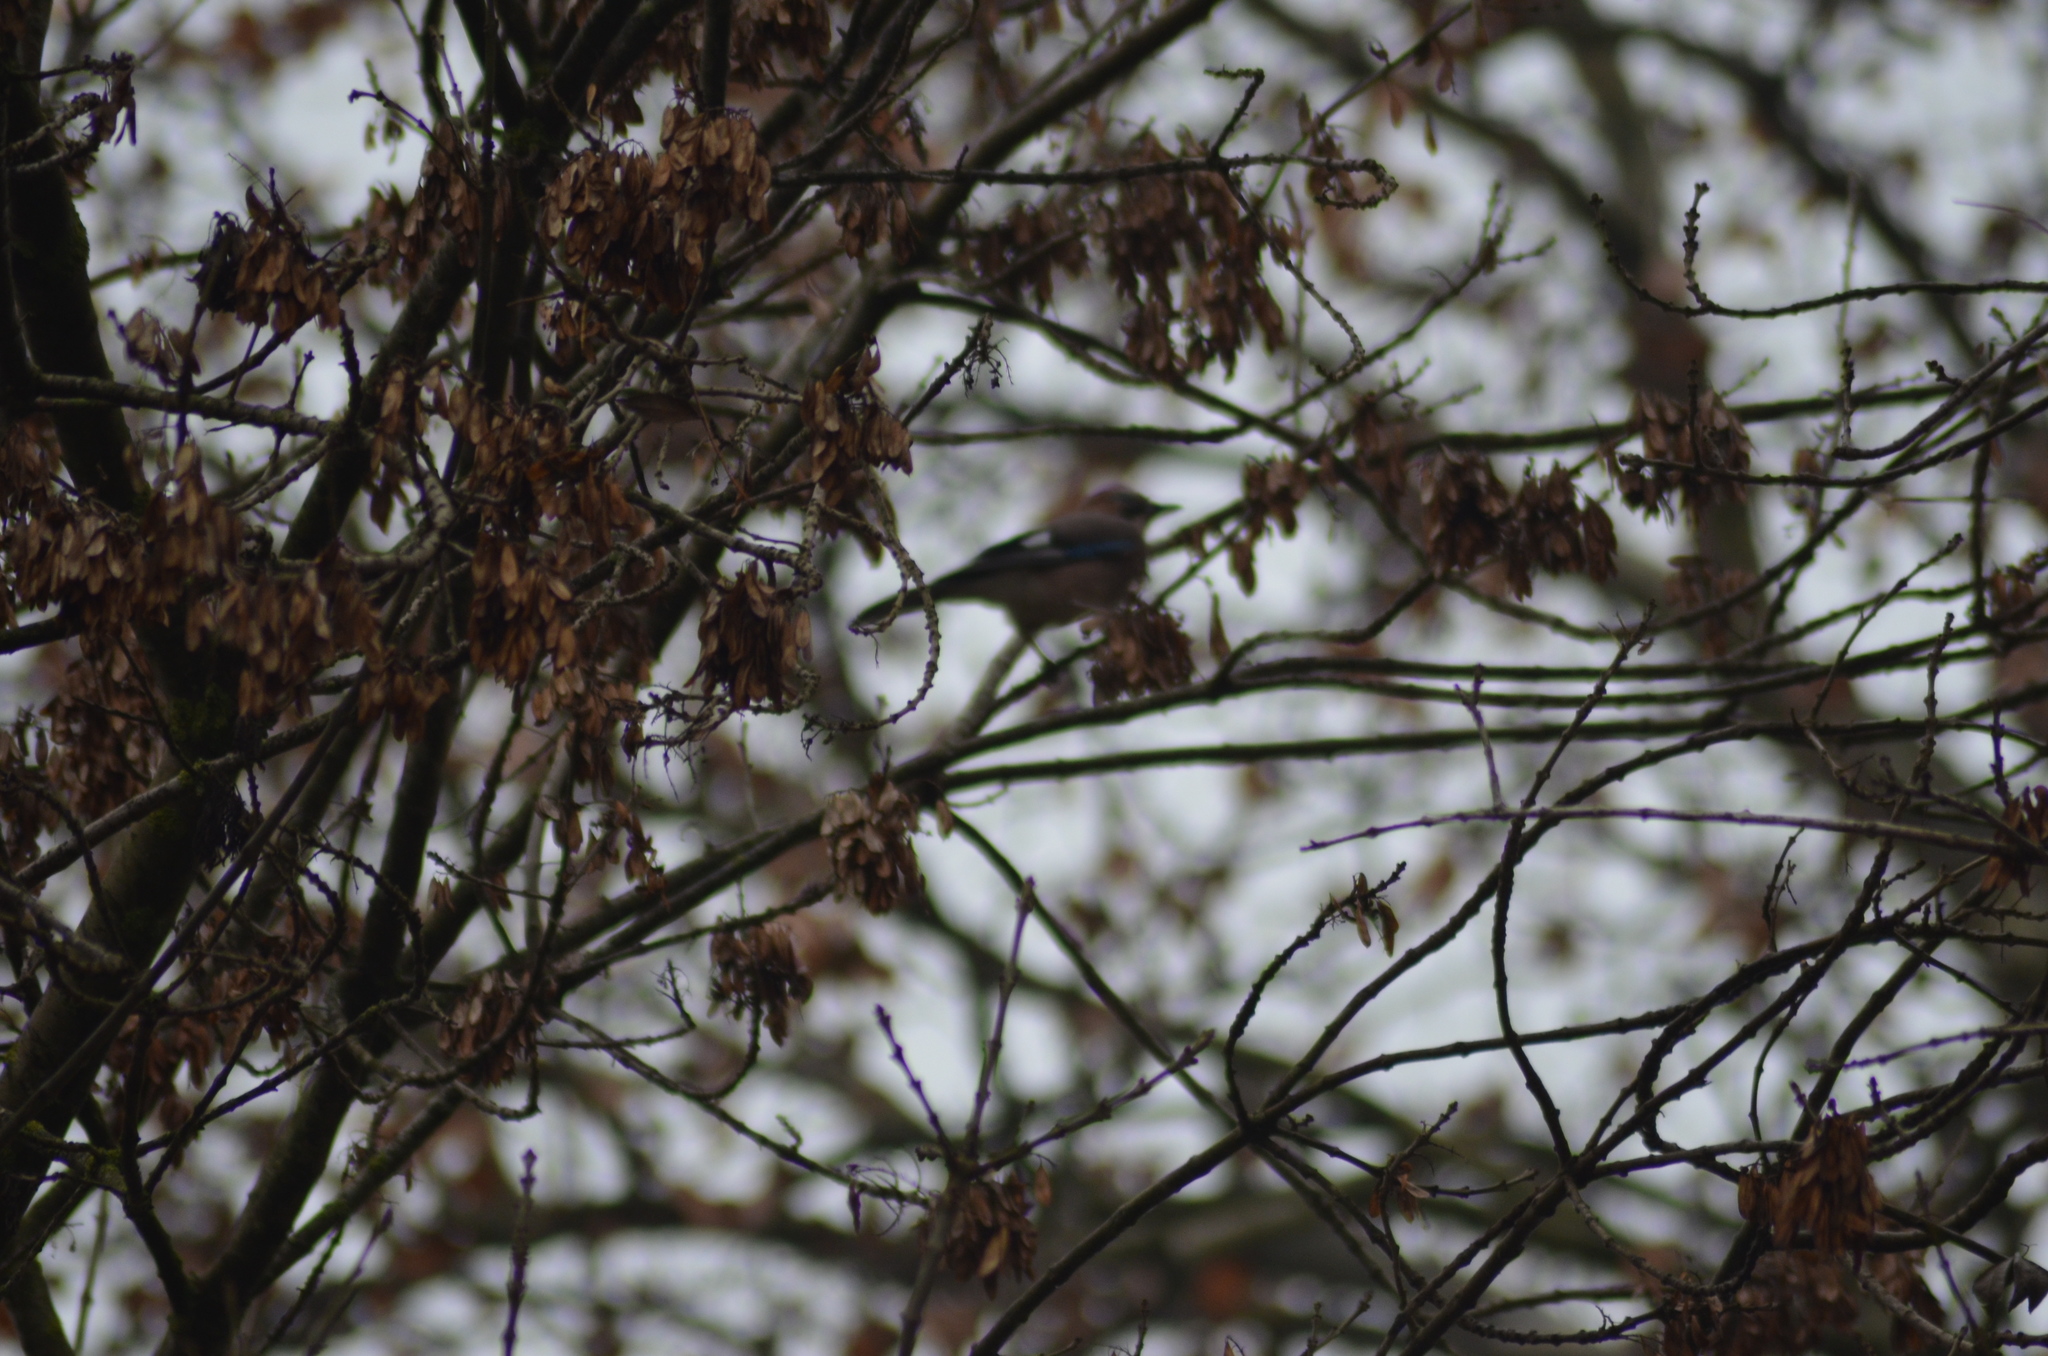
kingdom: Animalia
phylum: Chordata
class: Aves
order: Passeriformes
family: Corvidae
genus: Garrulus
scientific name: Garrulus glandarius
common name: Eurasian jay
